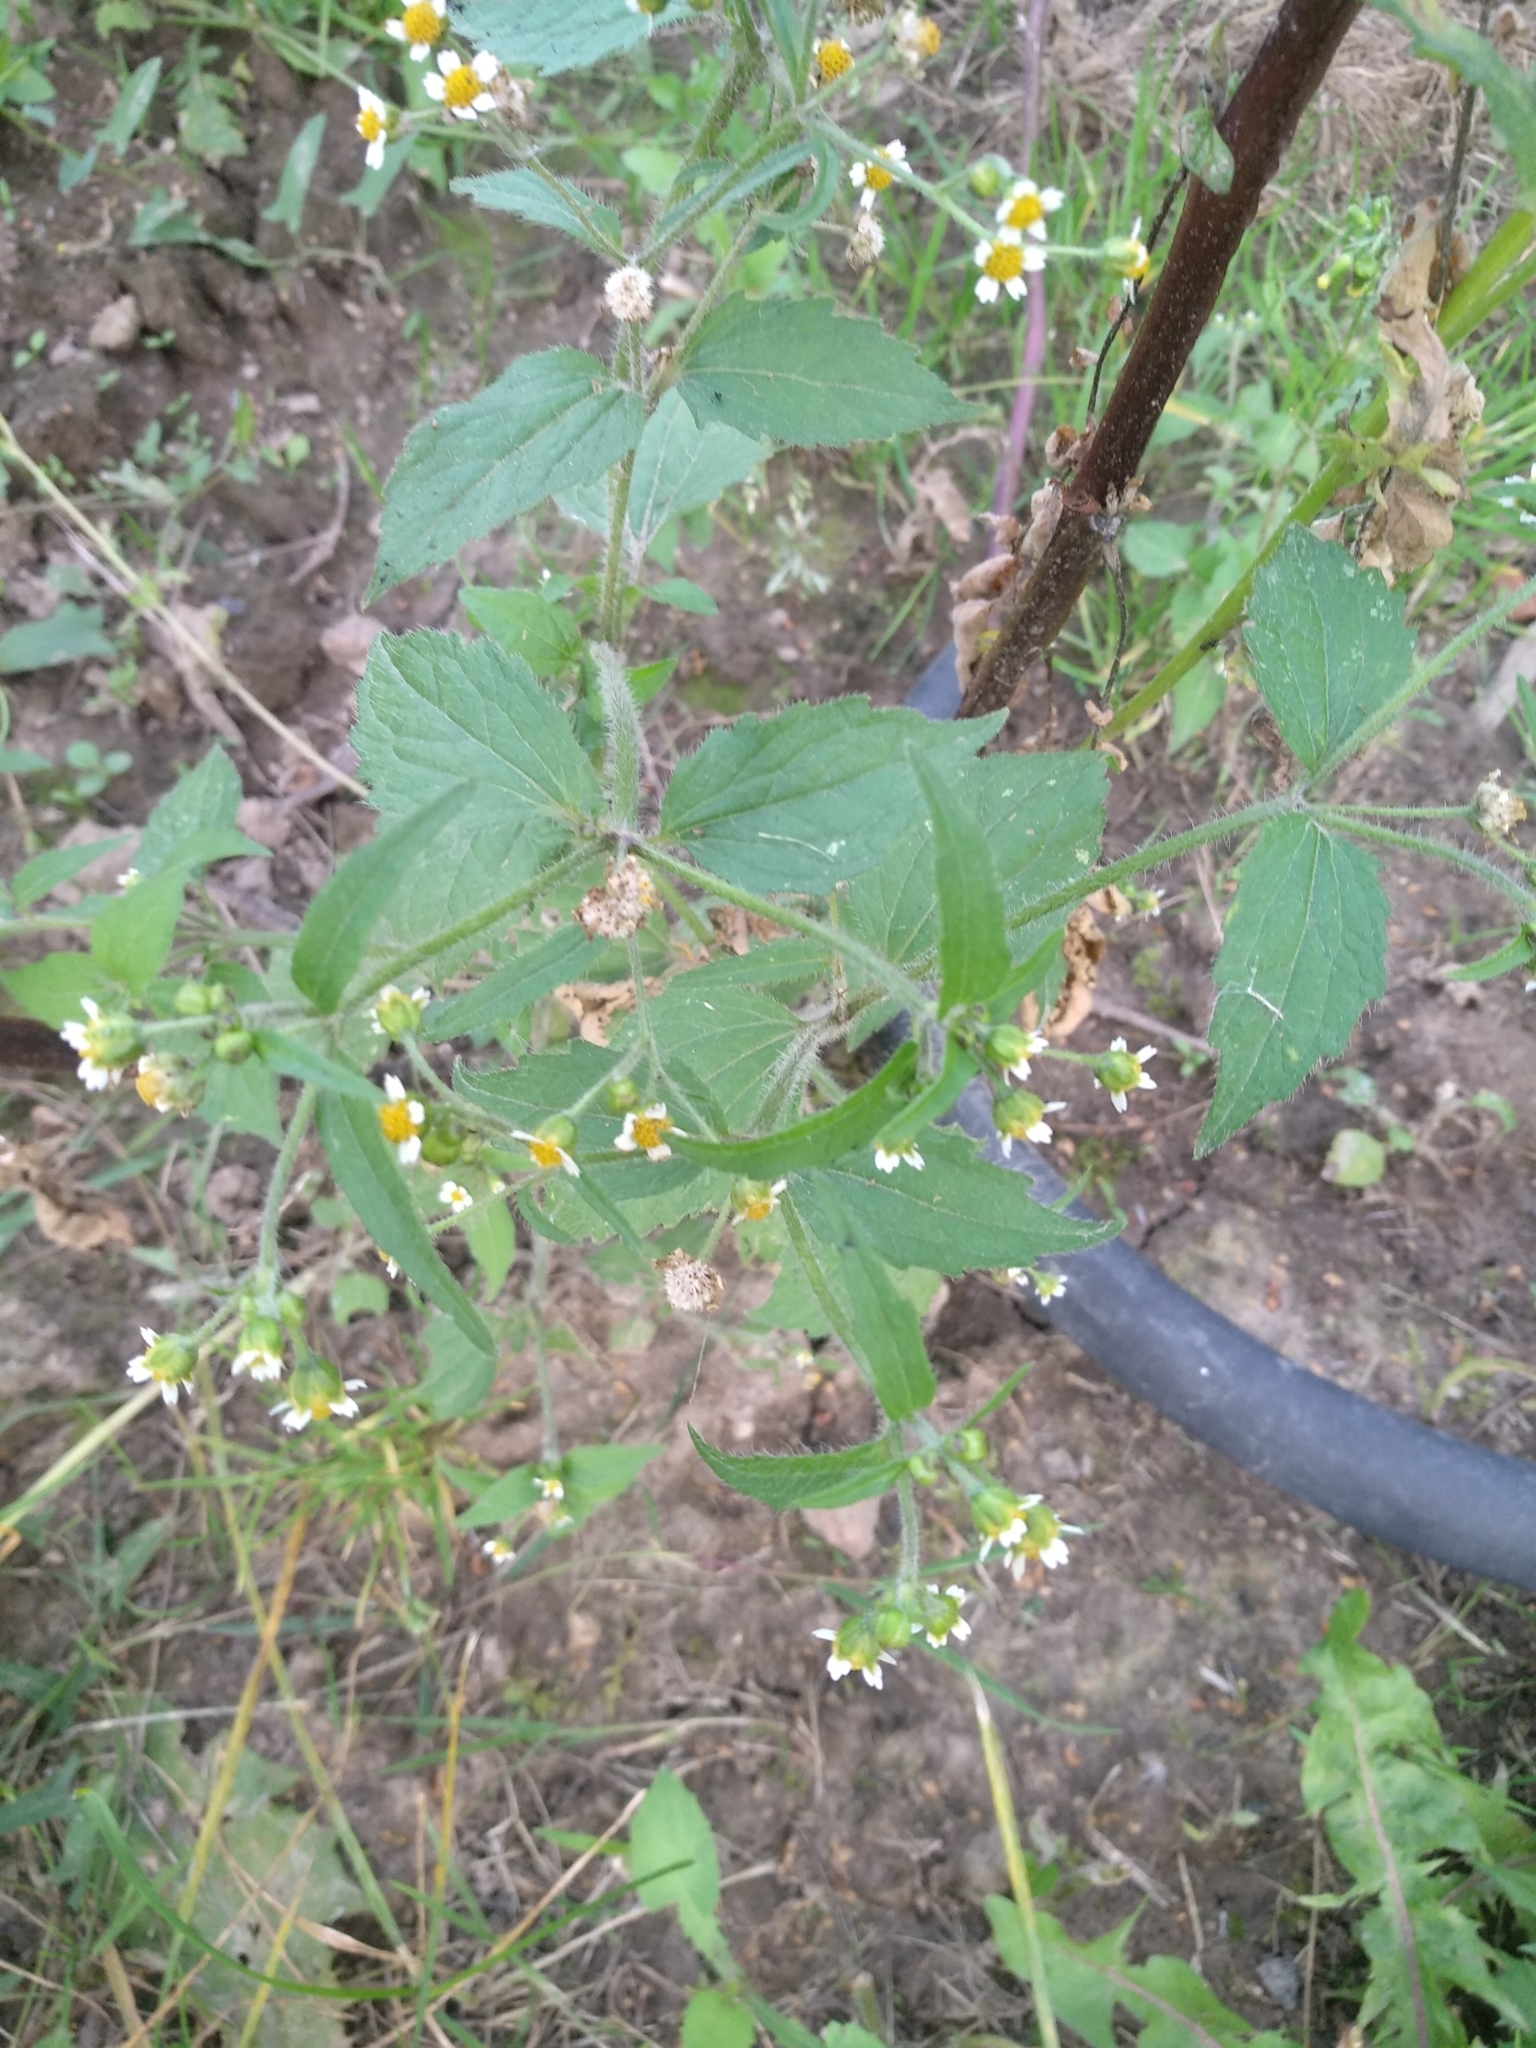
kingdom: Plantae
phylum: Tracheophyta
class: Magnoliopsida
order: Asterales
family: Asteraceae
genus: Galinsoga
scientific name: Galinsoga quadriradiata
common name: Shaggy soldier
